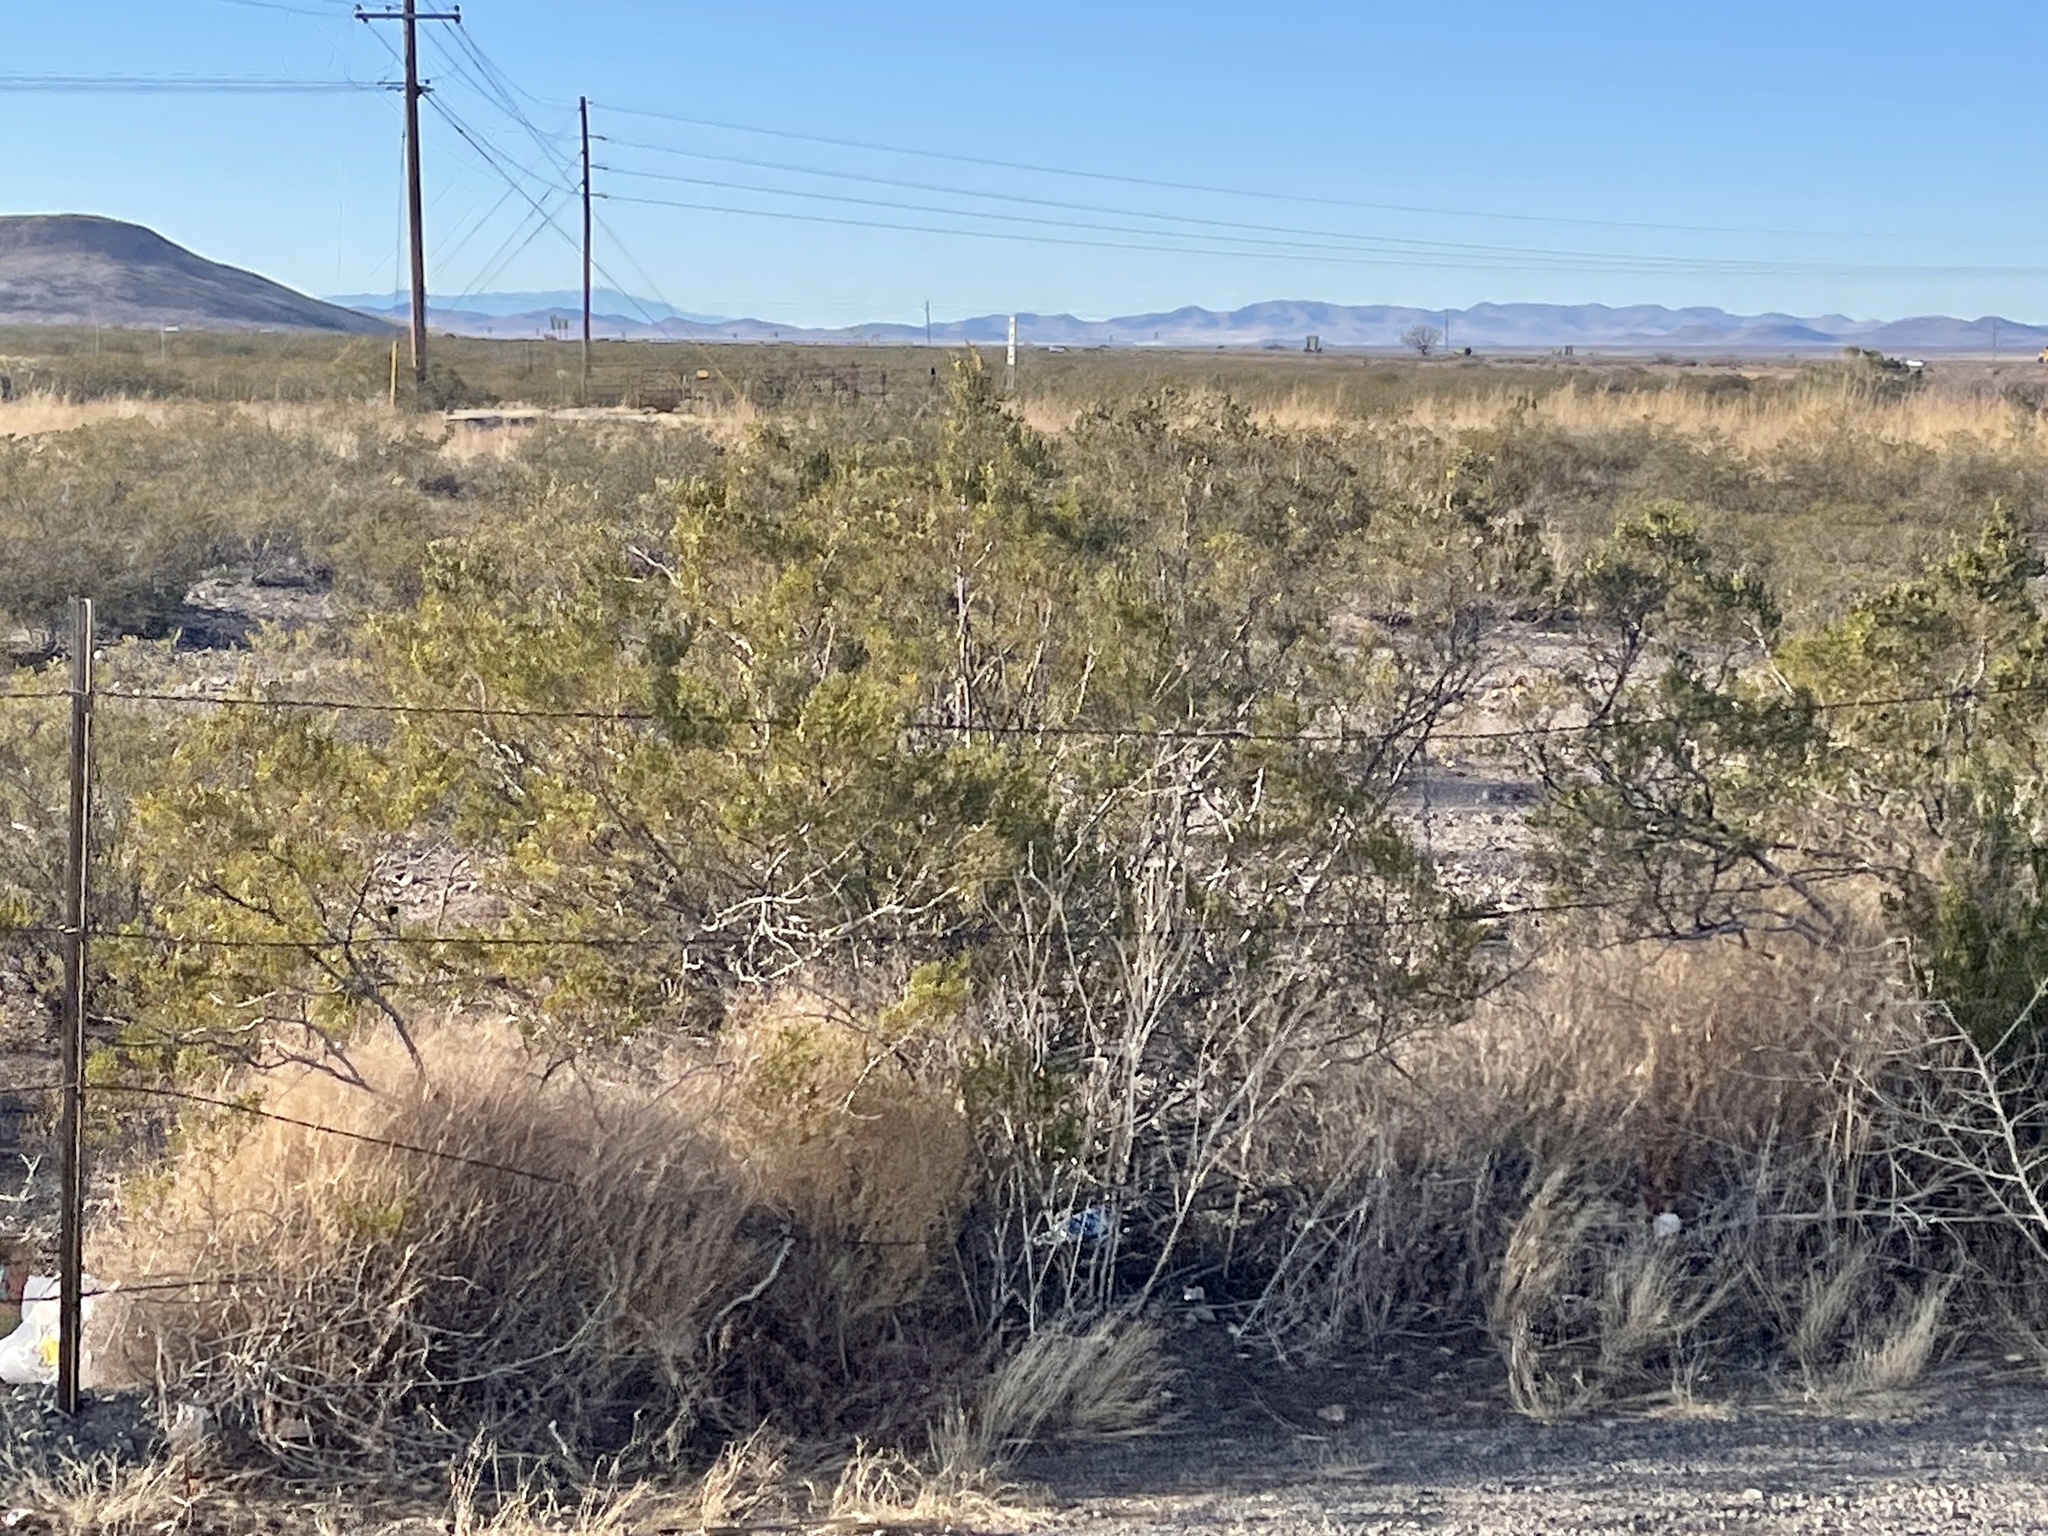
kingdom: Plantae
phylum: Tracheophyta
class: Magnoliopsida
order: Zygophyllales
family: Zygophyllaceae
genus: Larrea
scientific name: Larrea tridentata
